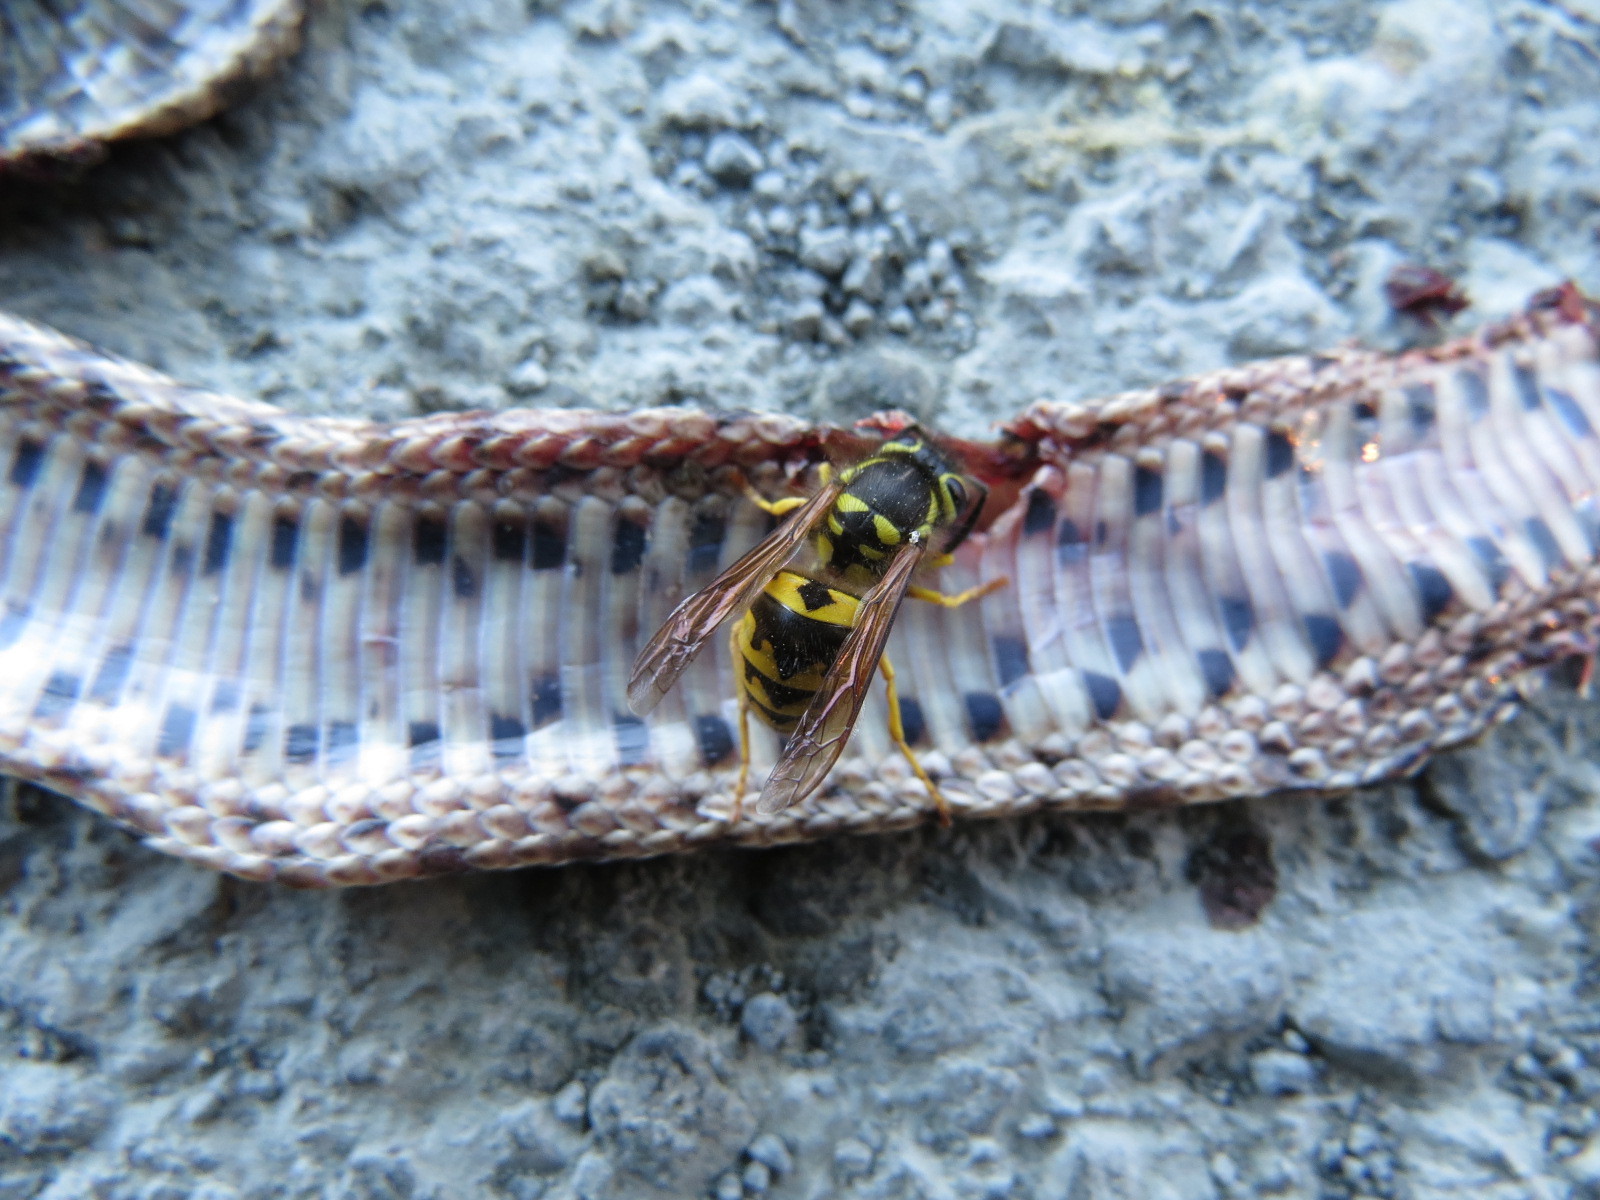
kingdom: Animalia
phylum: Arthropoda
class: Insecta
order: Hymenoptera
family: Vespidae
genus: Vespula
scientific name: Vespula pensylvanica
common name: Western yellowjacket
